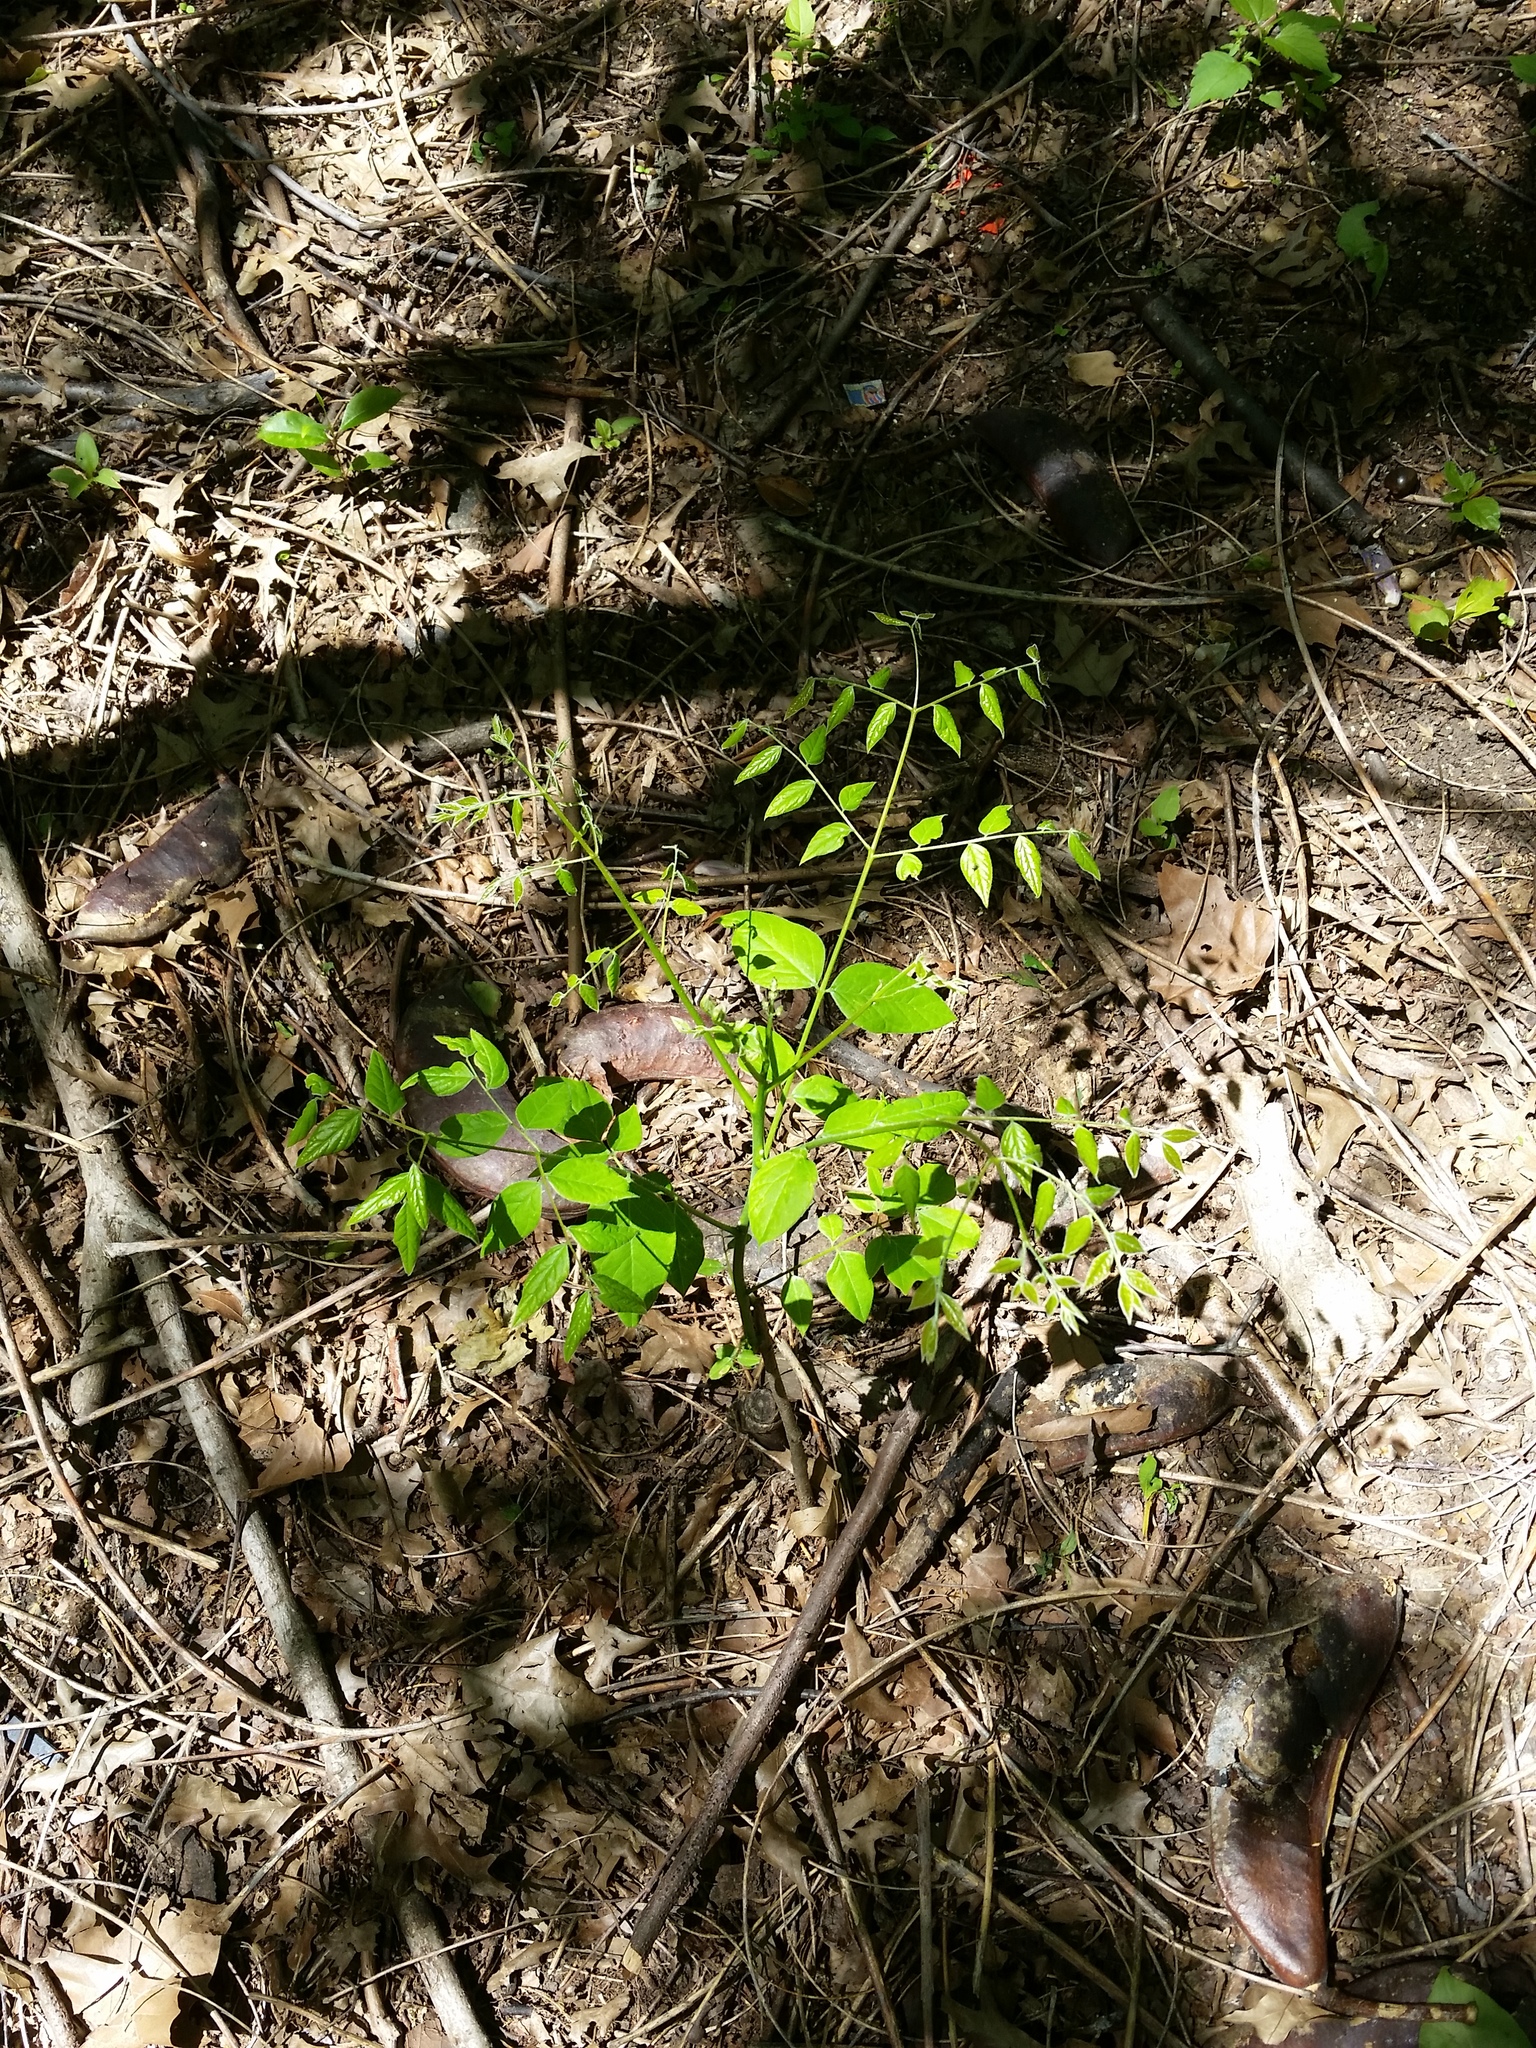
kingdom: Plantae
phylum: Tracheophyta
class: Magnoliopsida
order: Fabales
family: Fabaceae
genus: Gymnocladus
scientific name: Gymnocladus dioicus
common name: Kentucky coffee-tree
